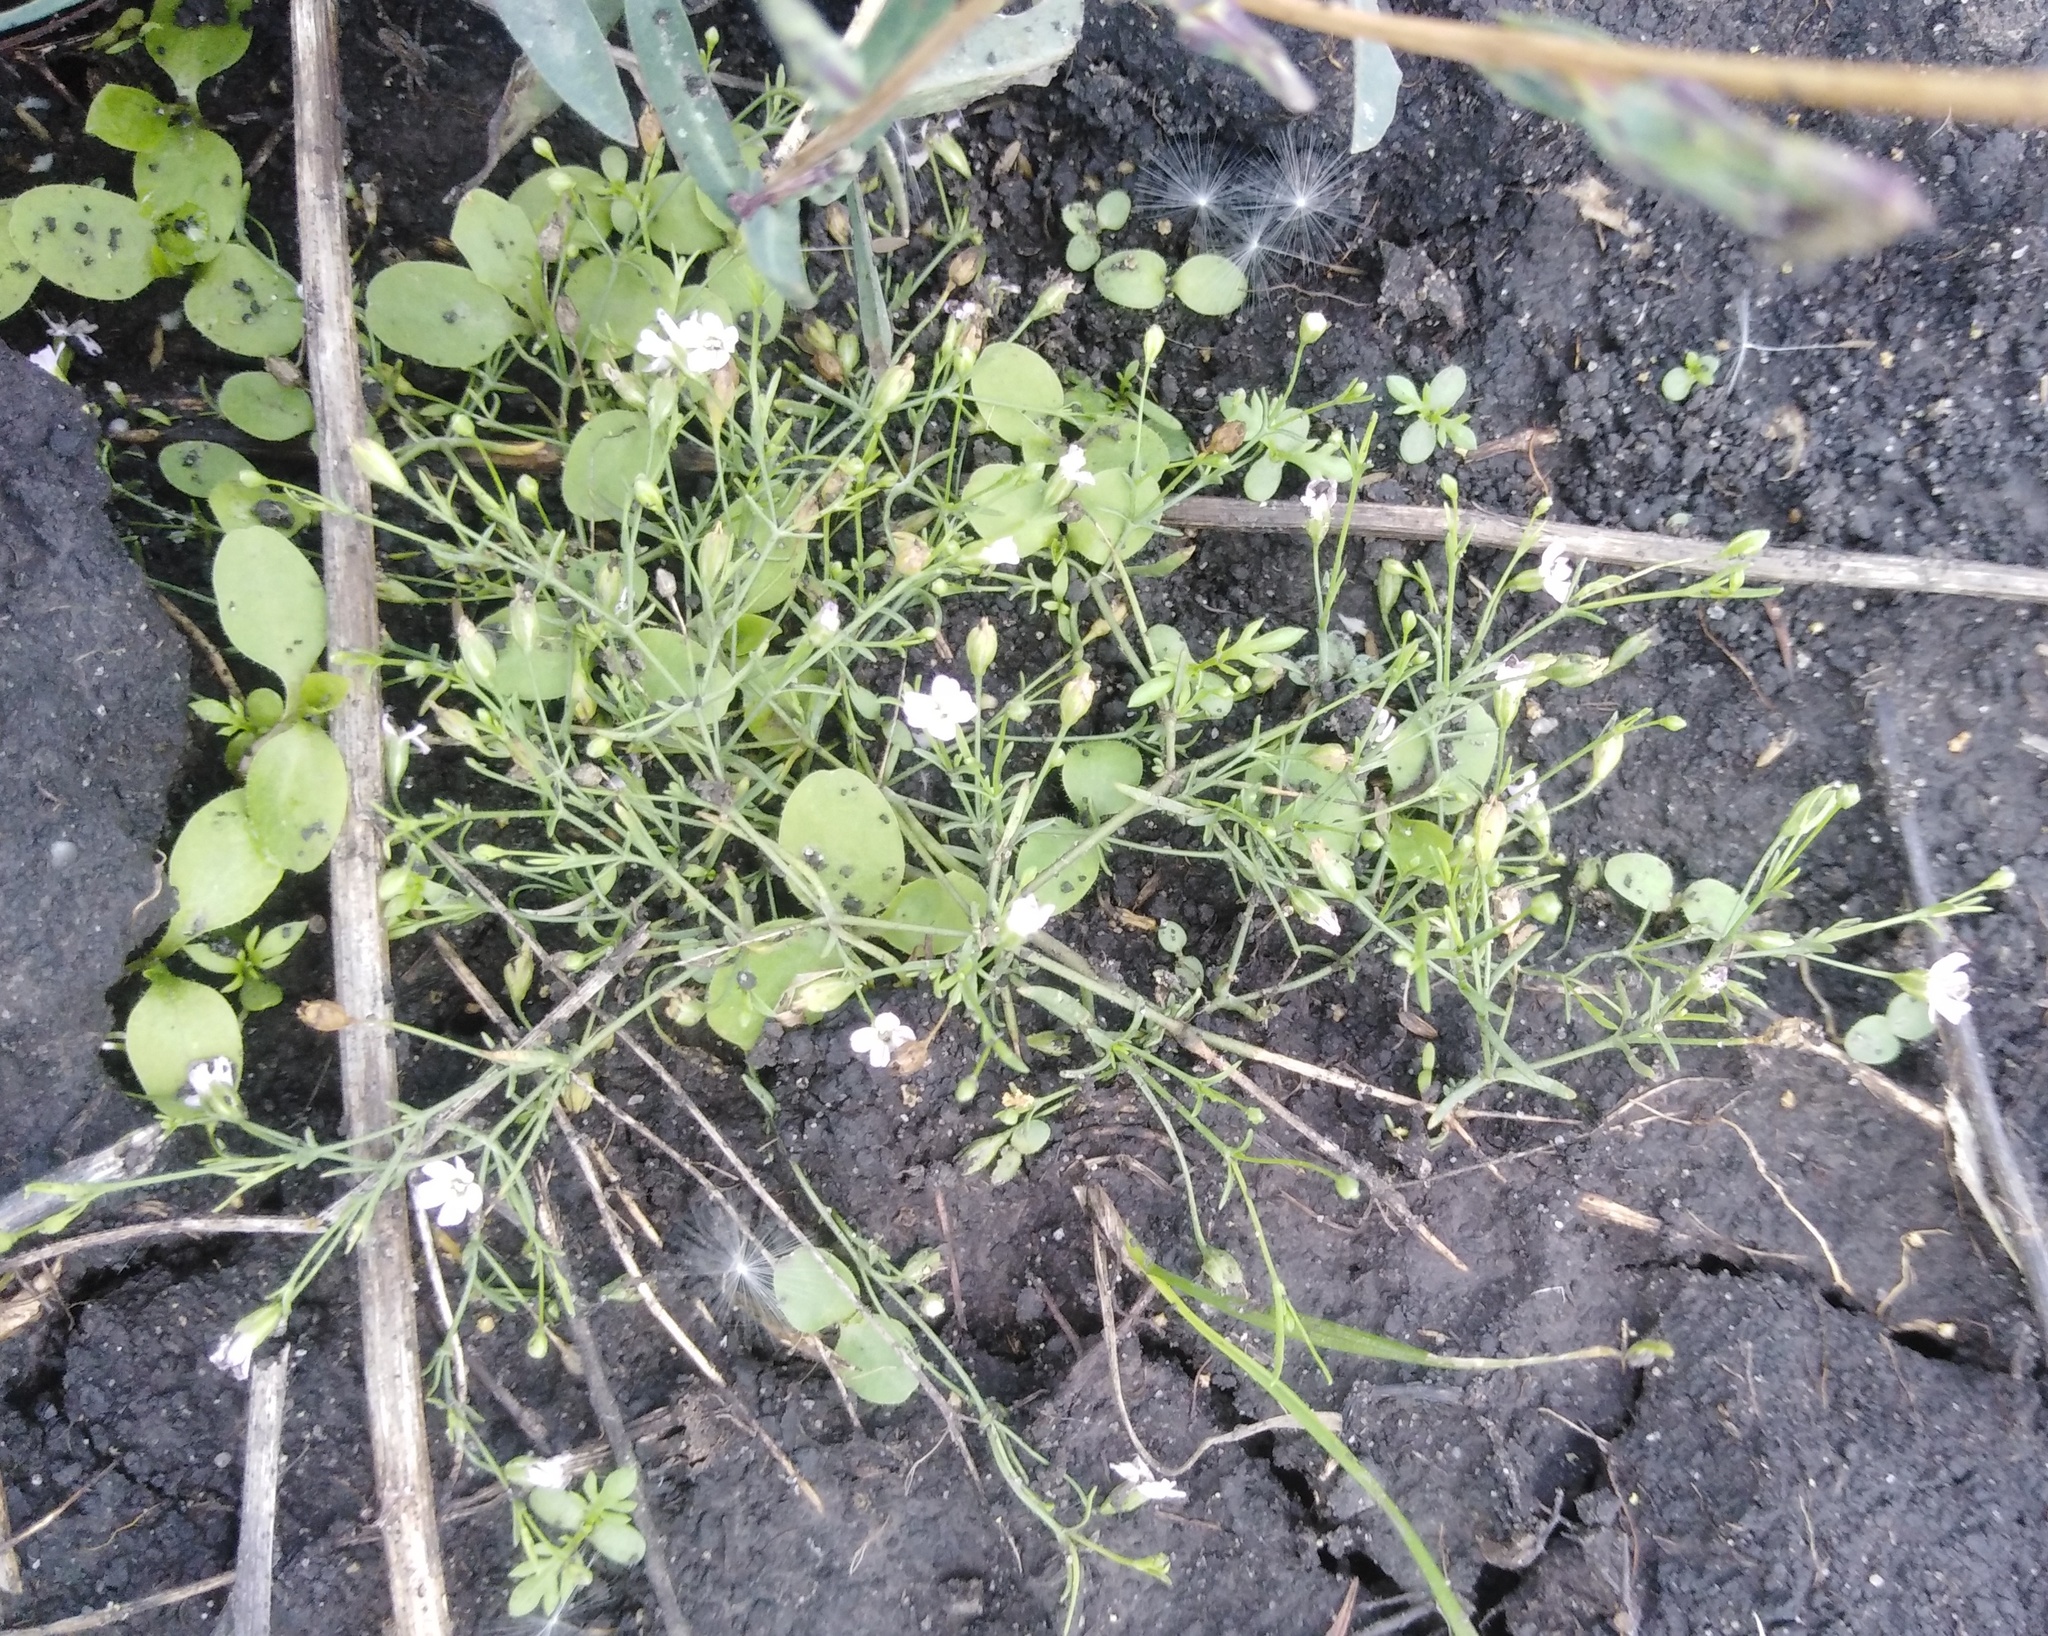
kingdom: Plantae
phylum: Tracheophyta
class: Magnoliopsida
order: Caryophyllales
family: Caryophyllaceae
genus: Psammophiliella
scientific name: Psammophiliella muralis
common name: Cushion baby's-breath
